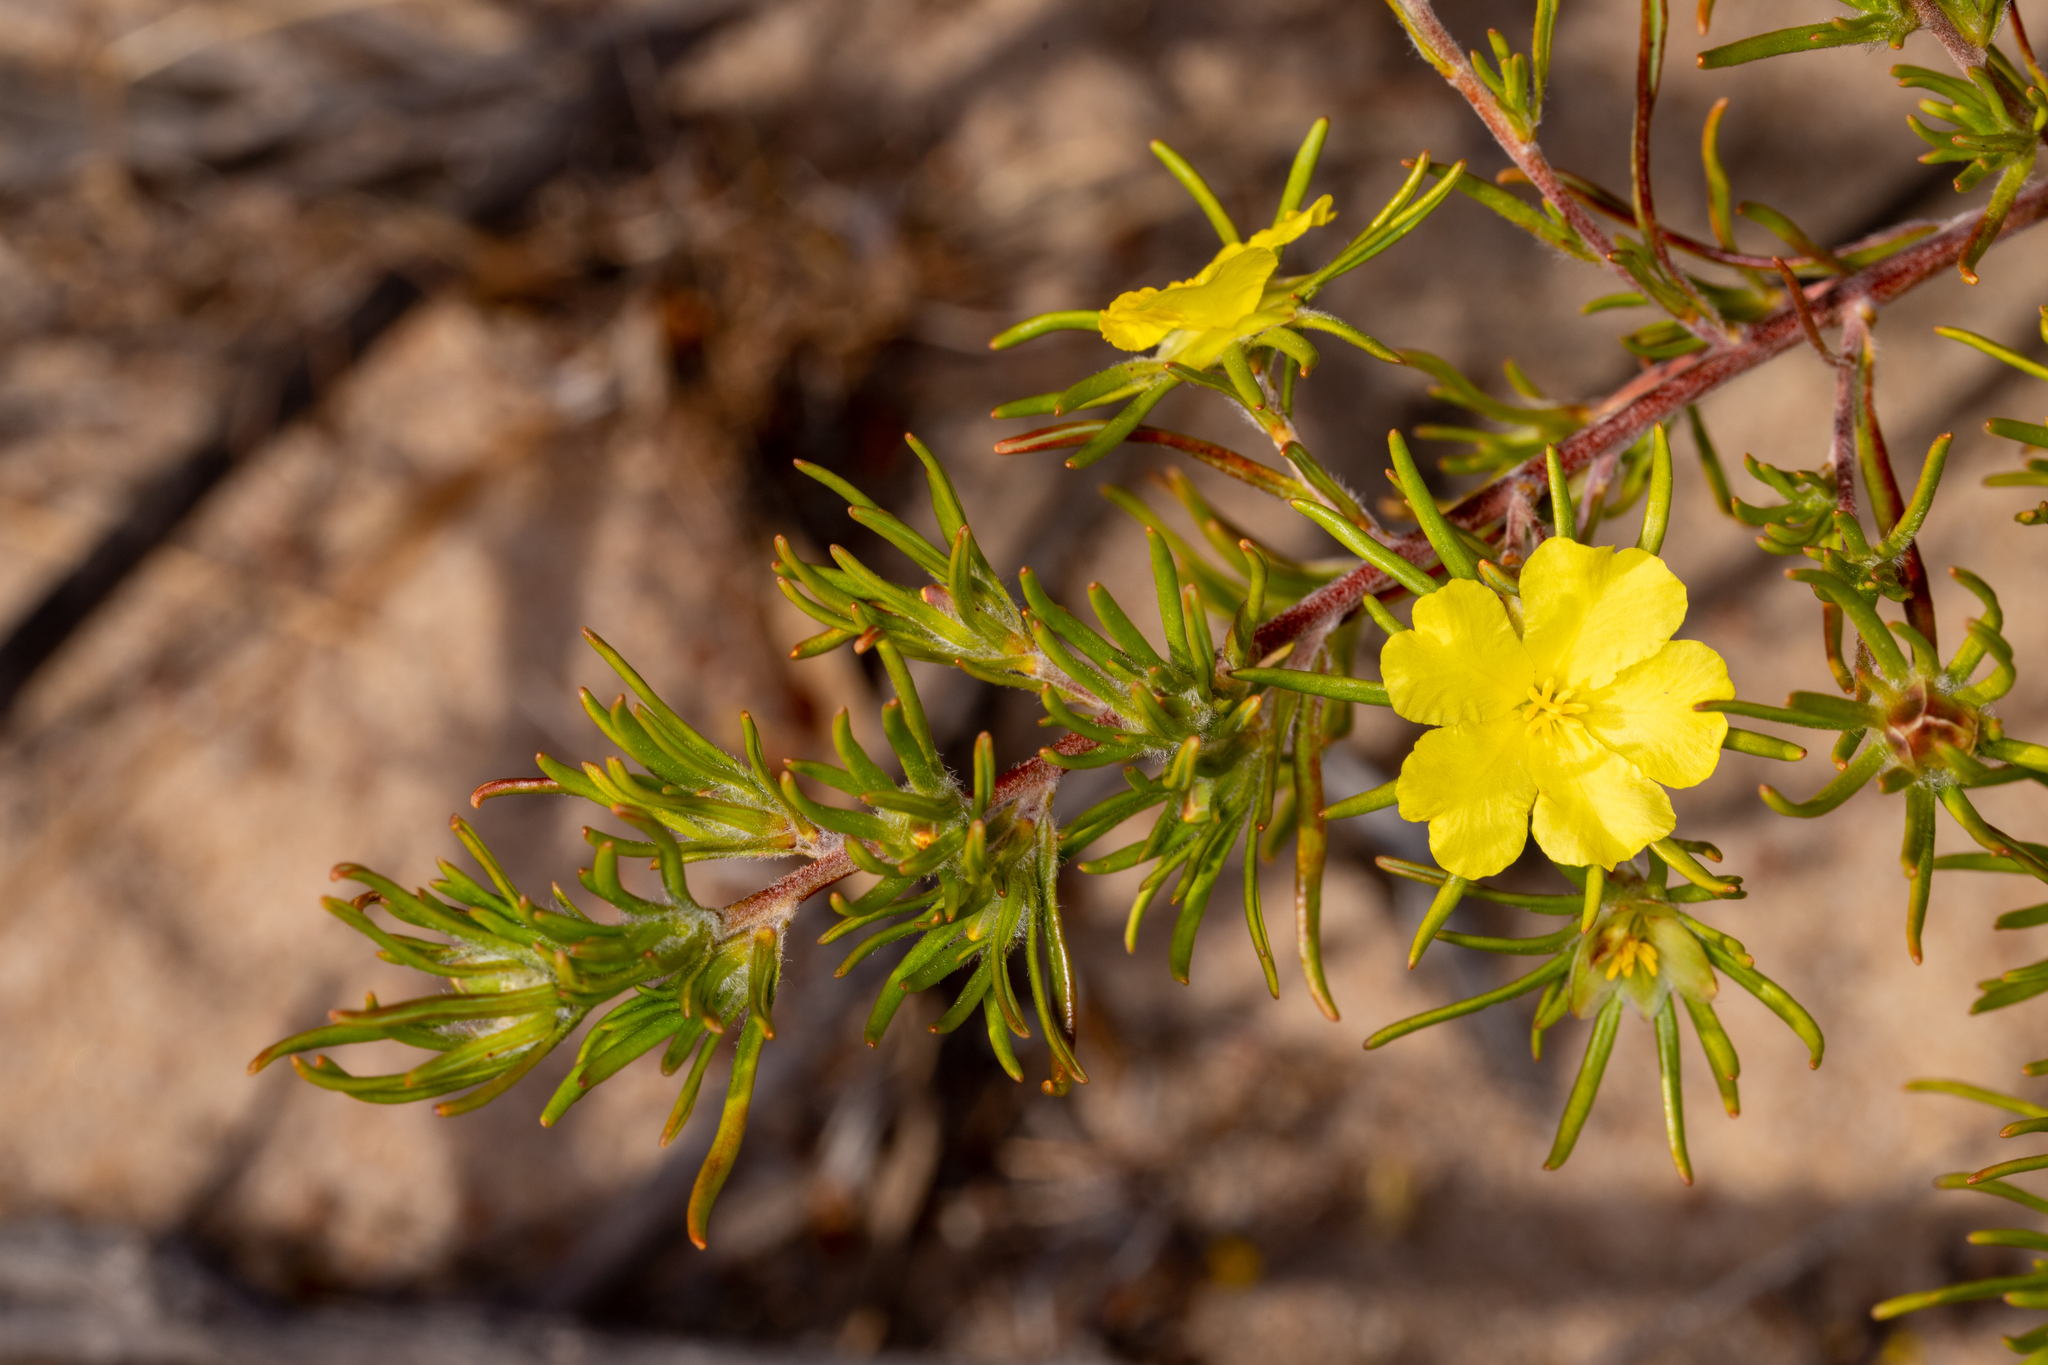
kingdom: Plantae
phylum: Tracheophyta
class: Magnoliopsida
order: Dilleniales
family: Dilleniaceae
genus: Hibbertia
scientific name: Hibbertia desmophylla
